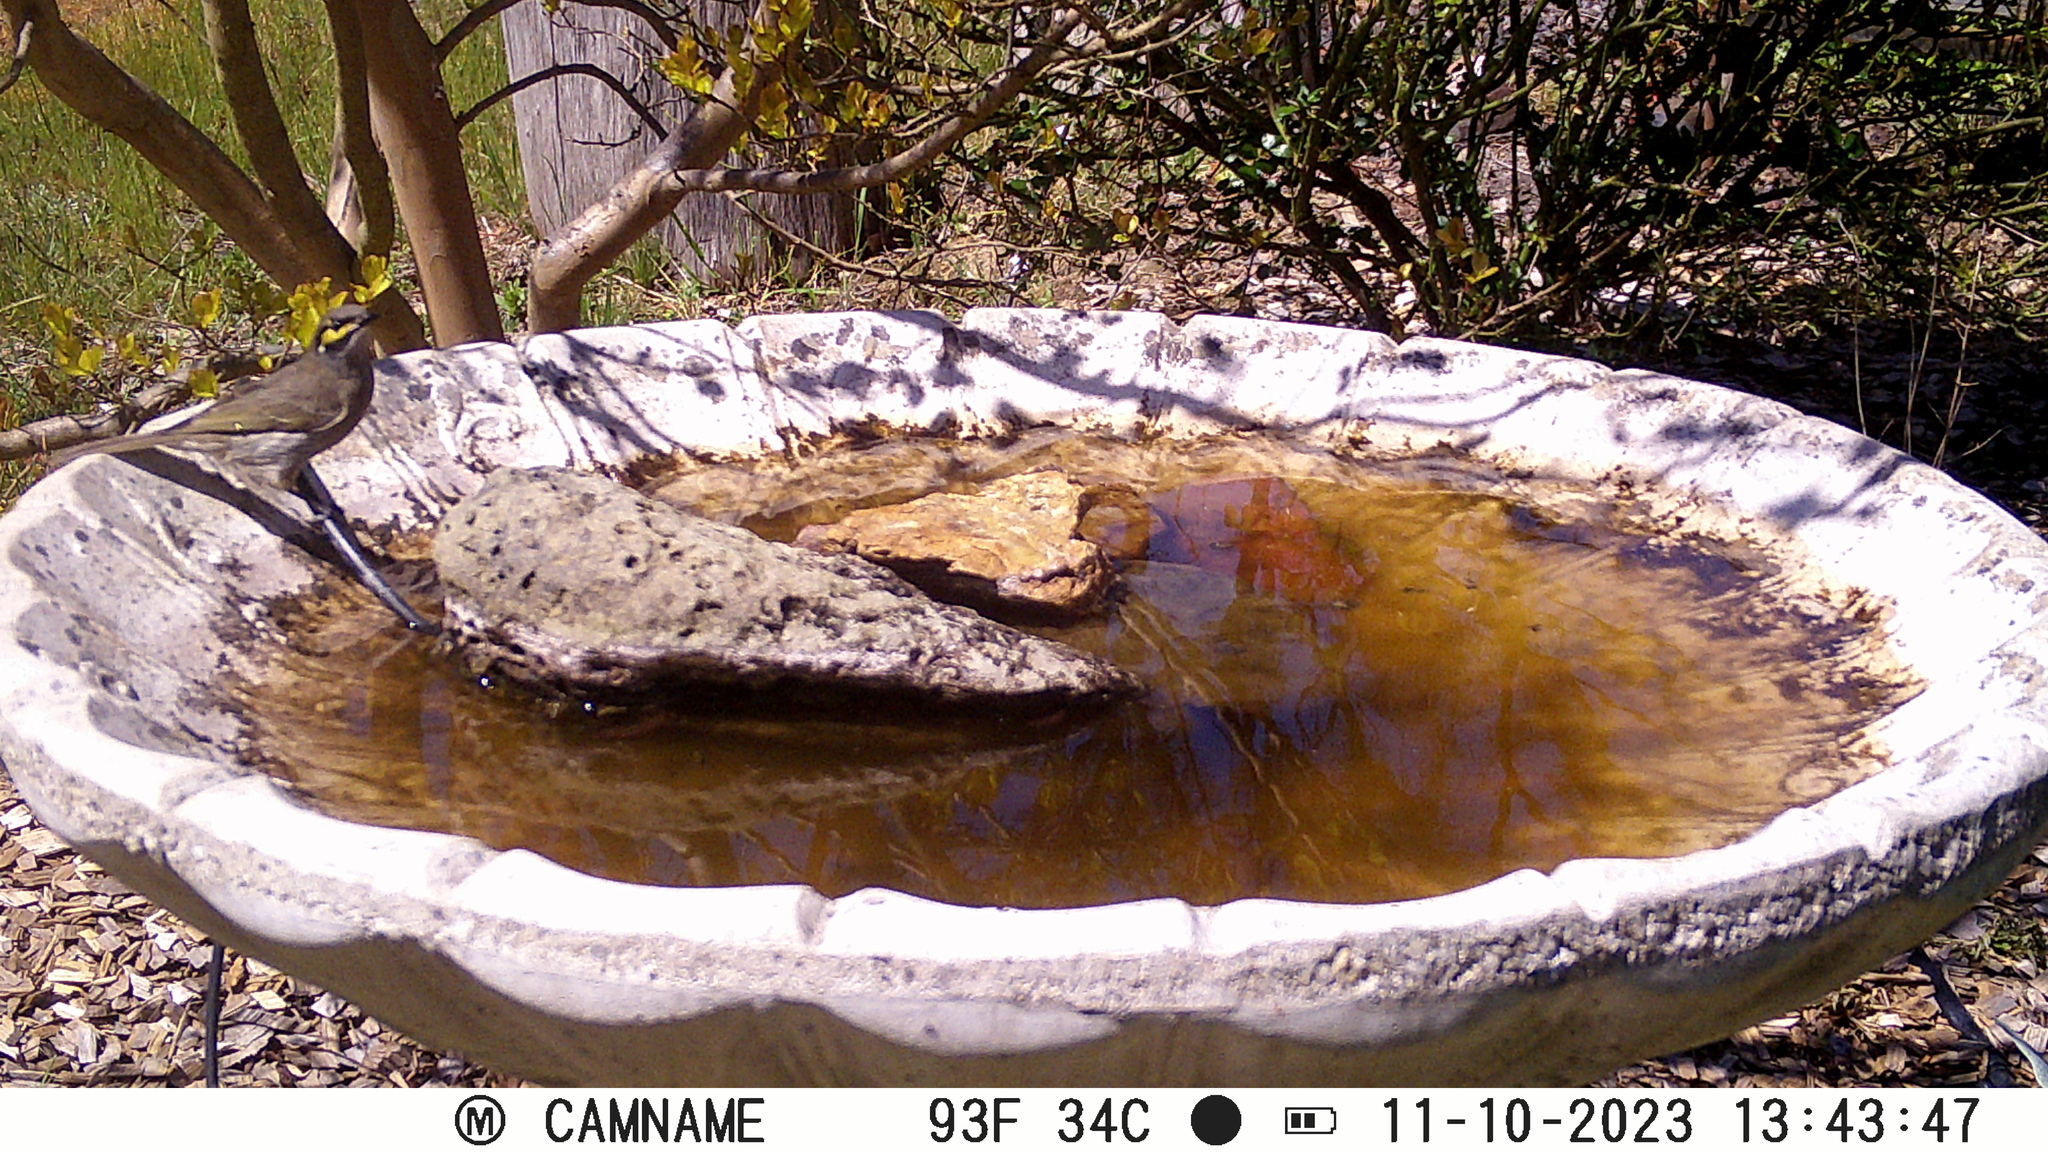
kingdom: Animalia
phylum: Chordata
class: Aves
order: Passeriformes
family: Meliphagidae
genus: Caligavis
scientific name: Caligavis chrysops
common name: Yellow-faced honeyeater
